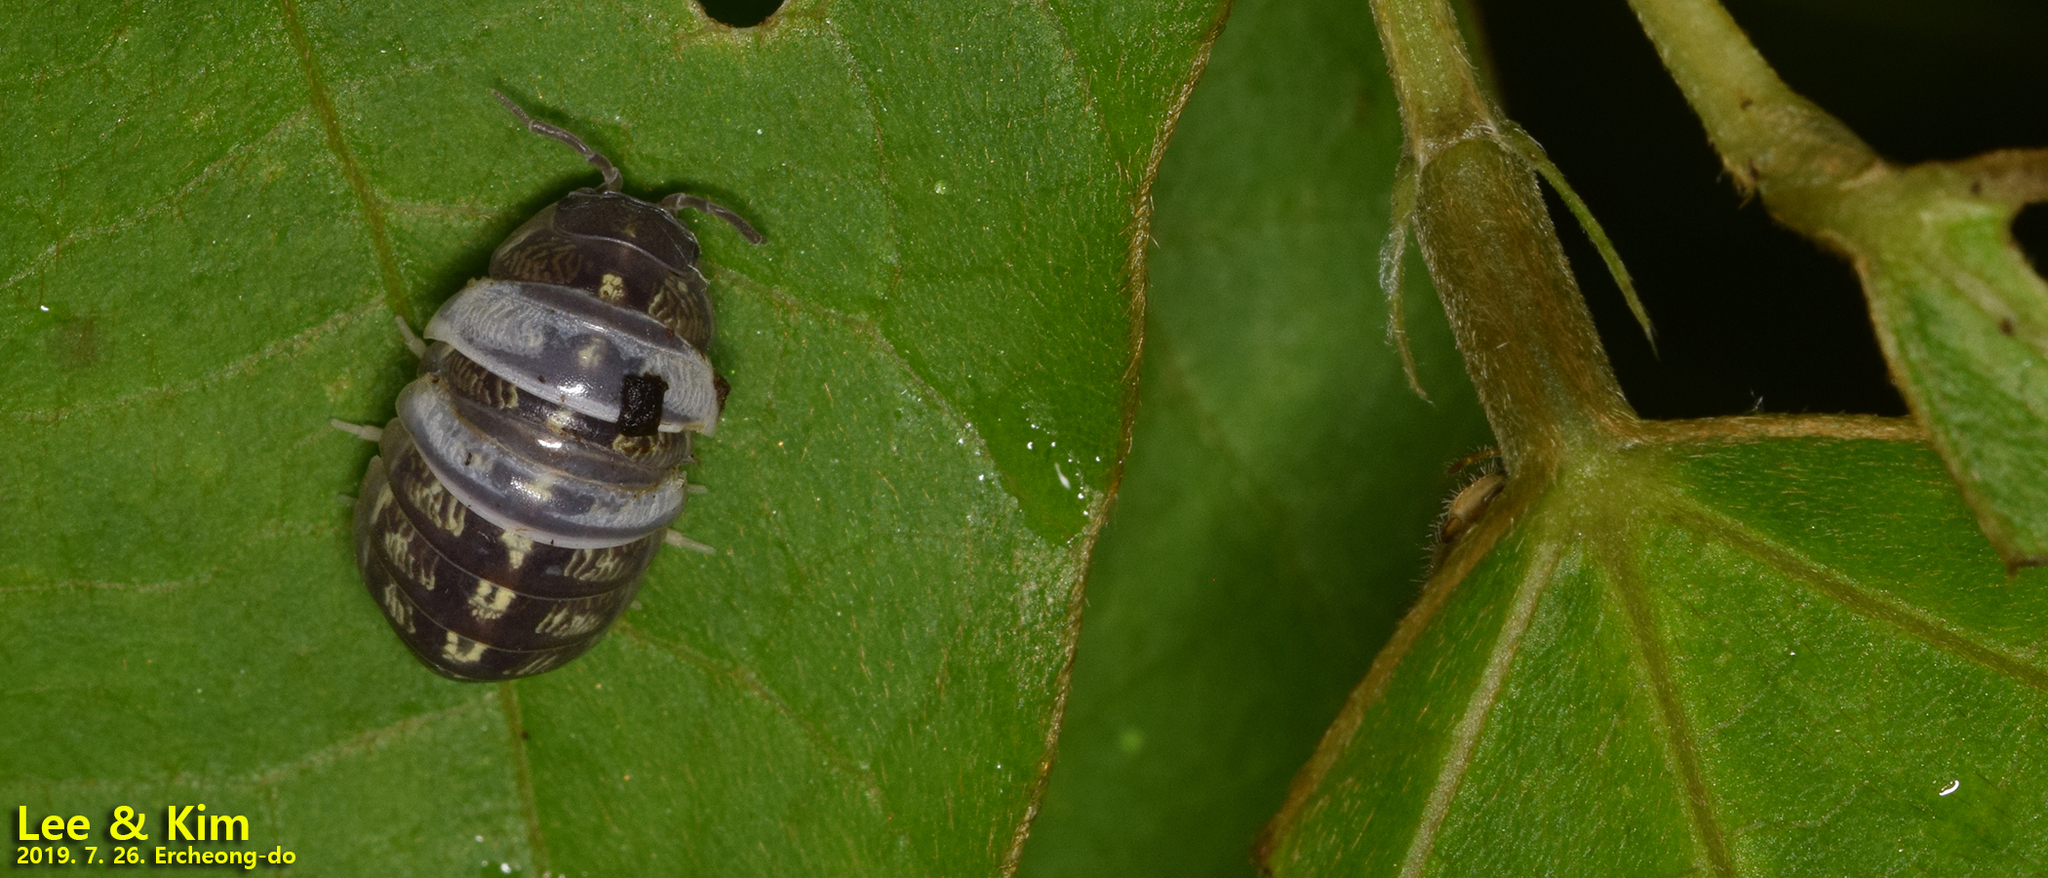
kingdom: Animalia
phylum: Arthropoda
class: Malacostraca
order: Isopoda
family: Armadillidiidae
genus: Armadillidium
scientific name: Armadillidium vulgare
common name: Common pill woodlouse
